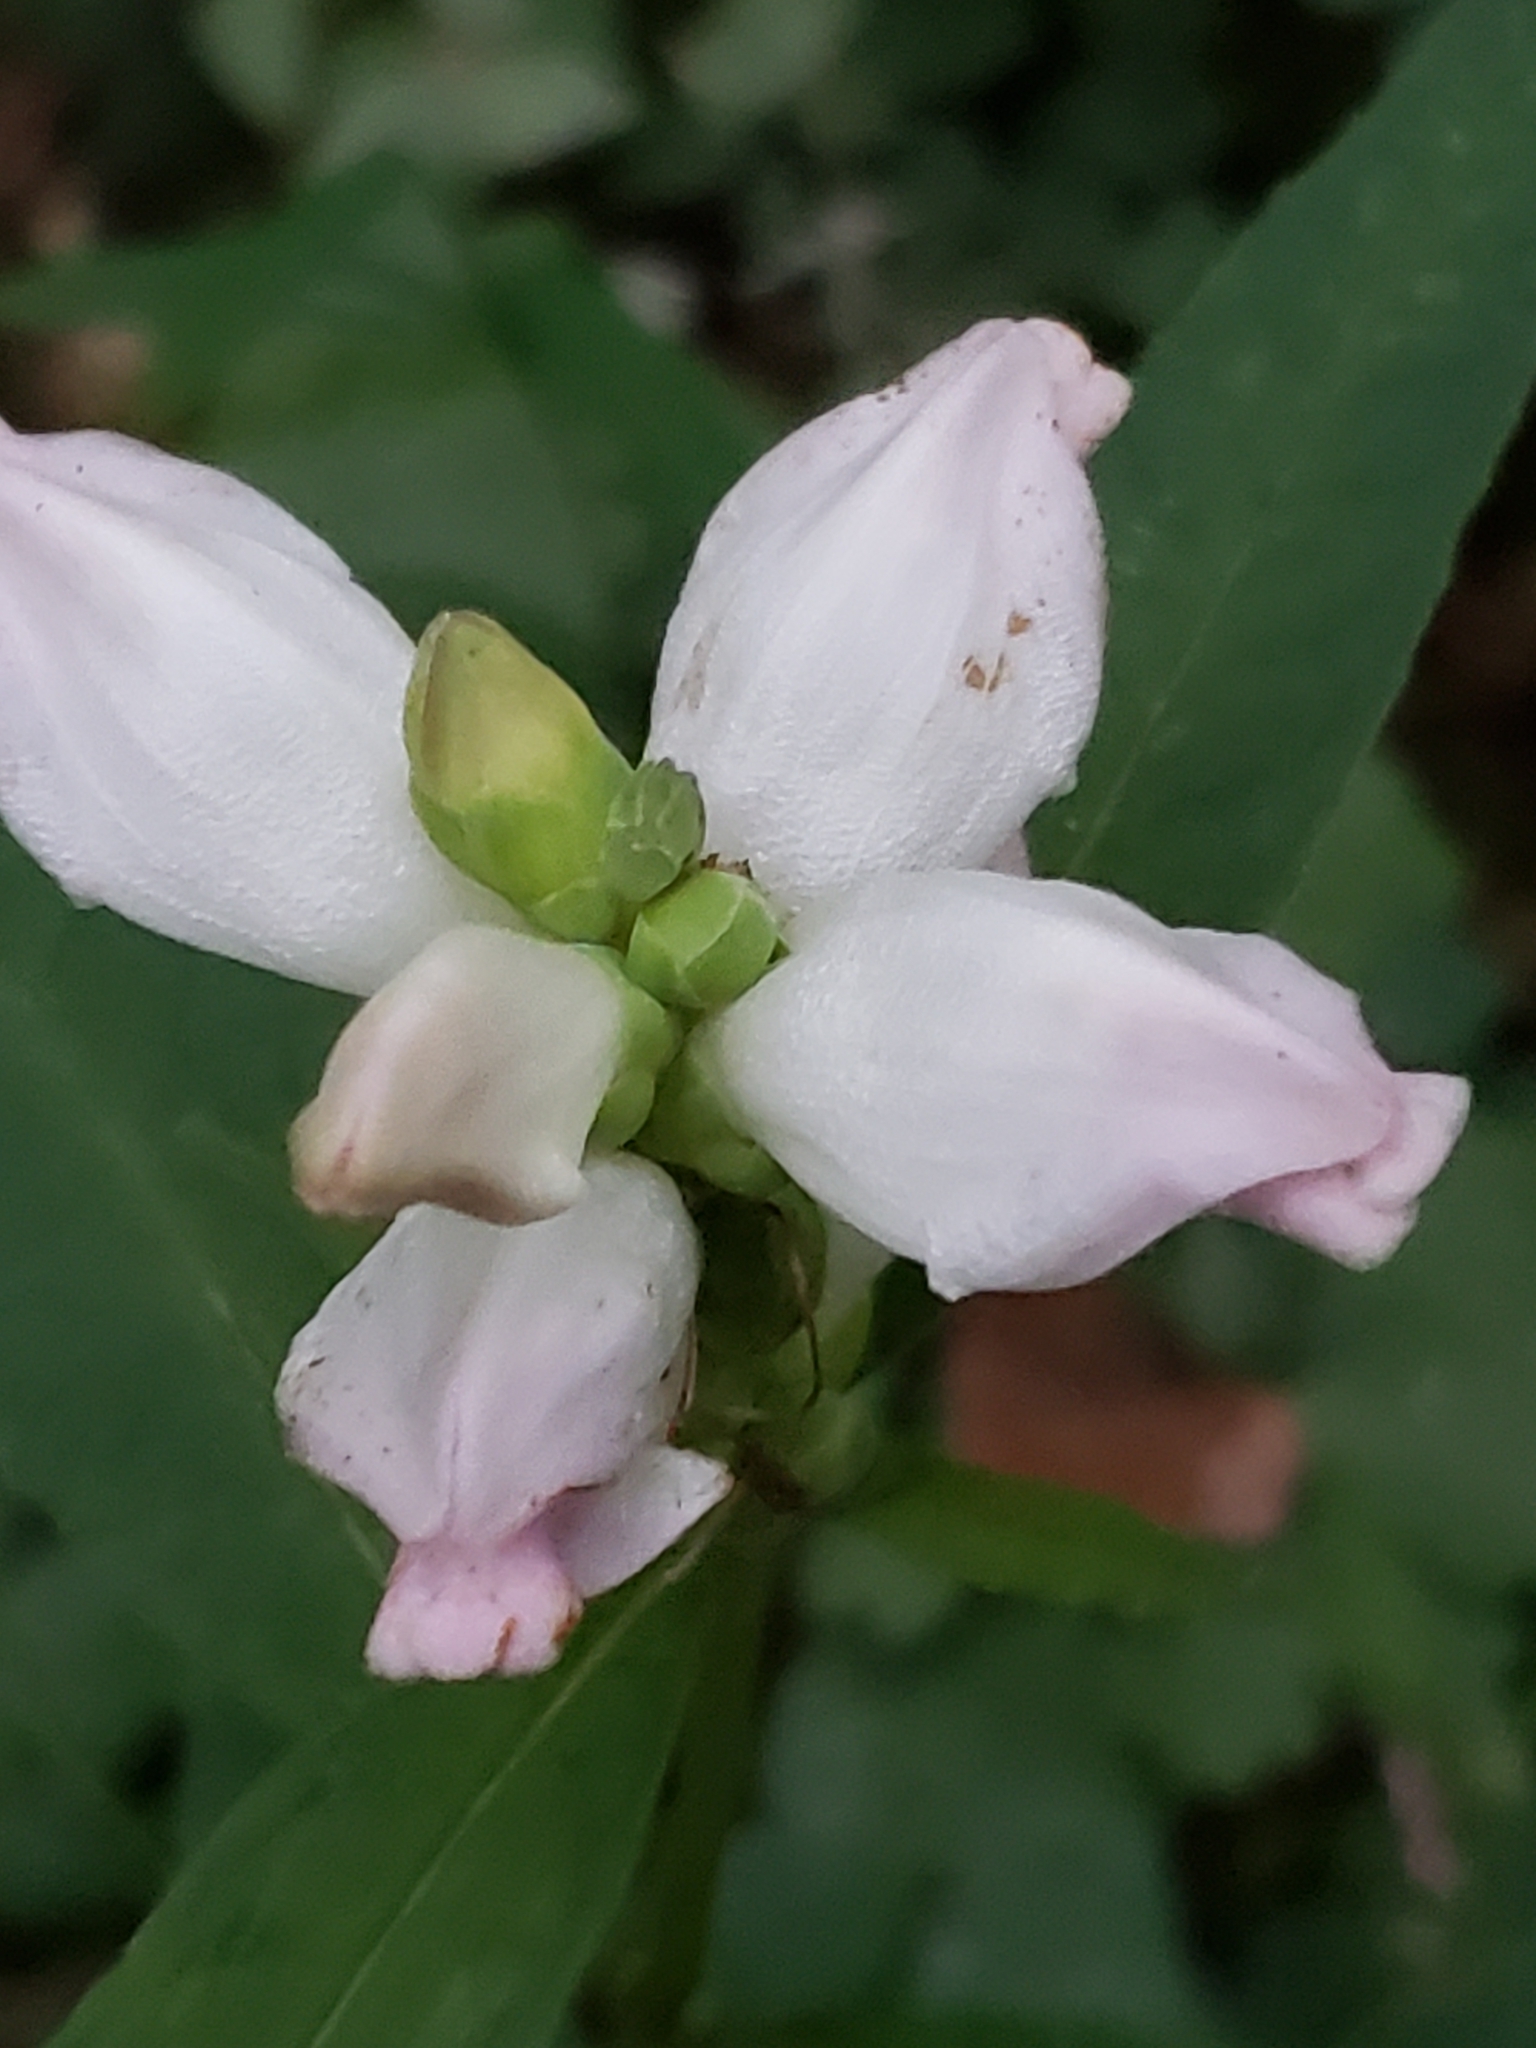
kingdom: Plantae
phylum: Tracheophyta
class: Magnoliopsida
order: Lamiales
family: Plantaginaceae
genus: Chelone
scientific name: Chelone glabra
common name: Snakehead
